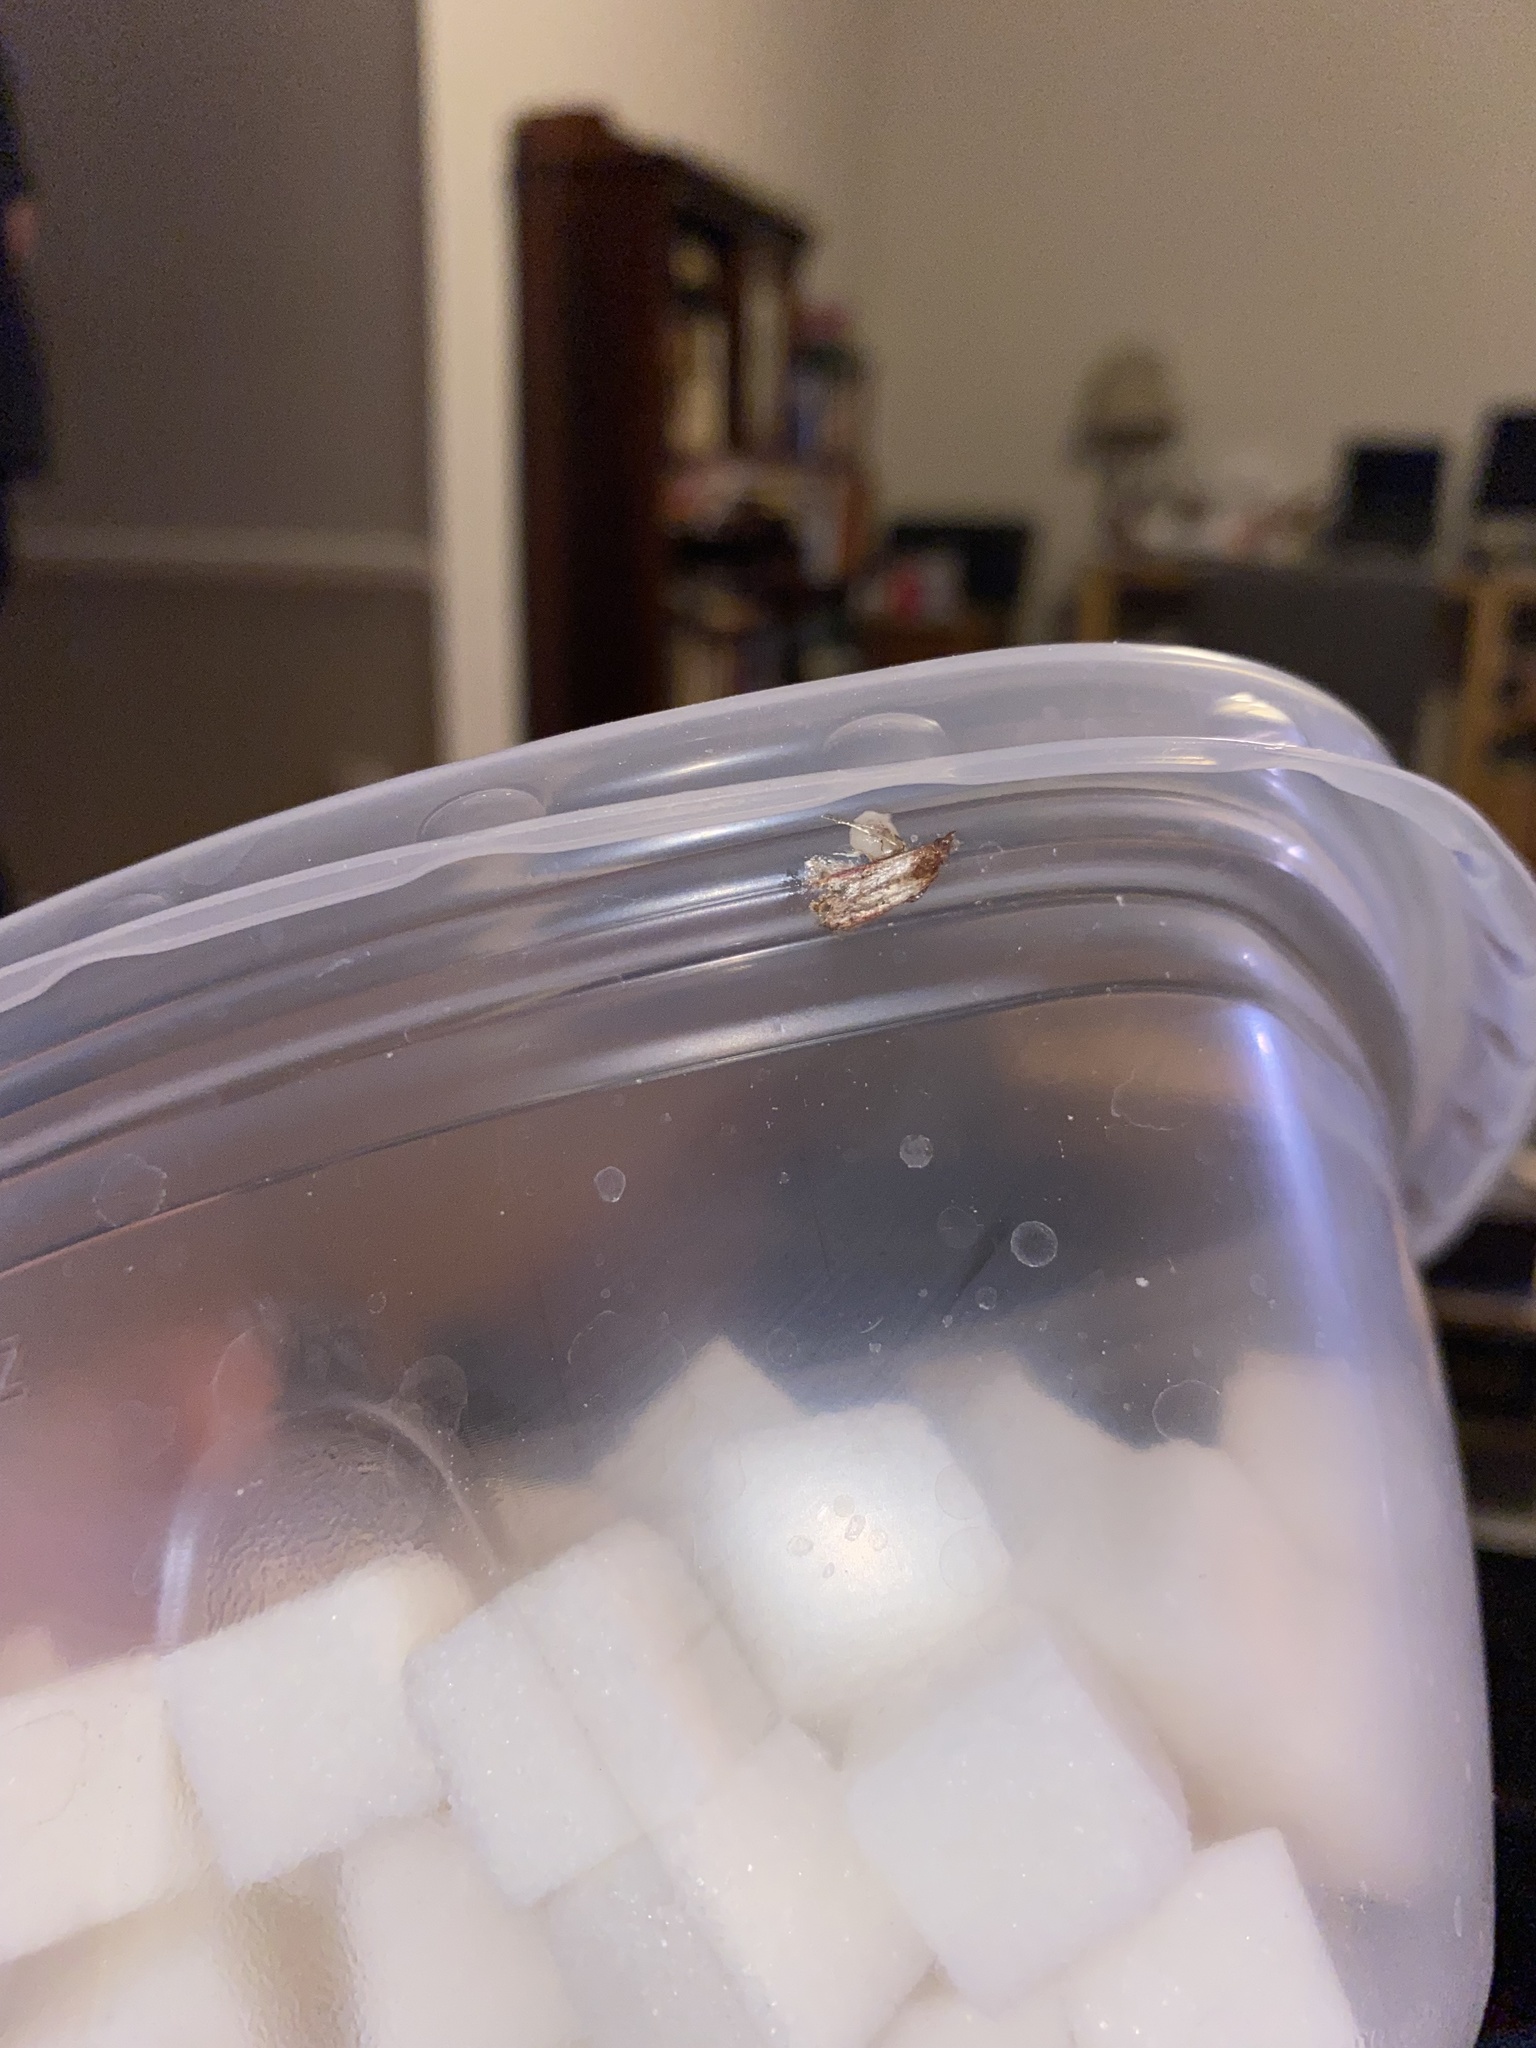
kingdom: Animalia
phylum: Arthropoda
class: Insecta
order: Lepidoptera
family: Pyralidae
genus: Plodia
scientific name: Plodia interpunctella
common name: Indian meal moth
